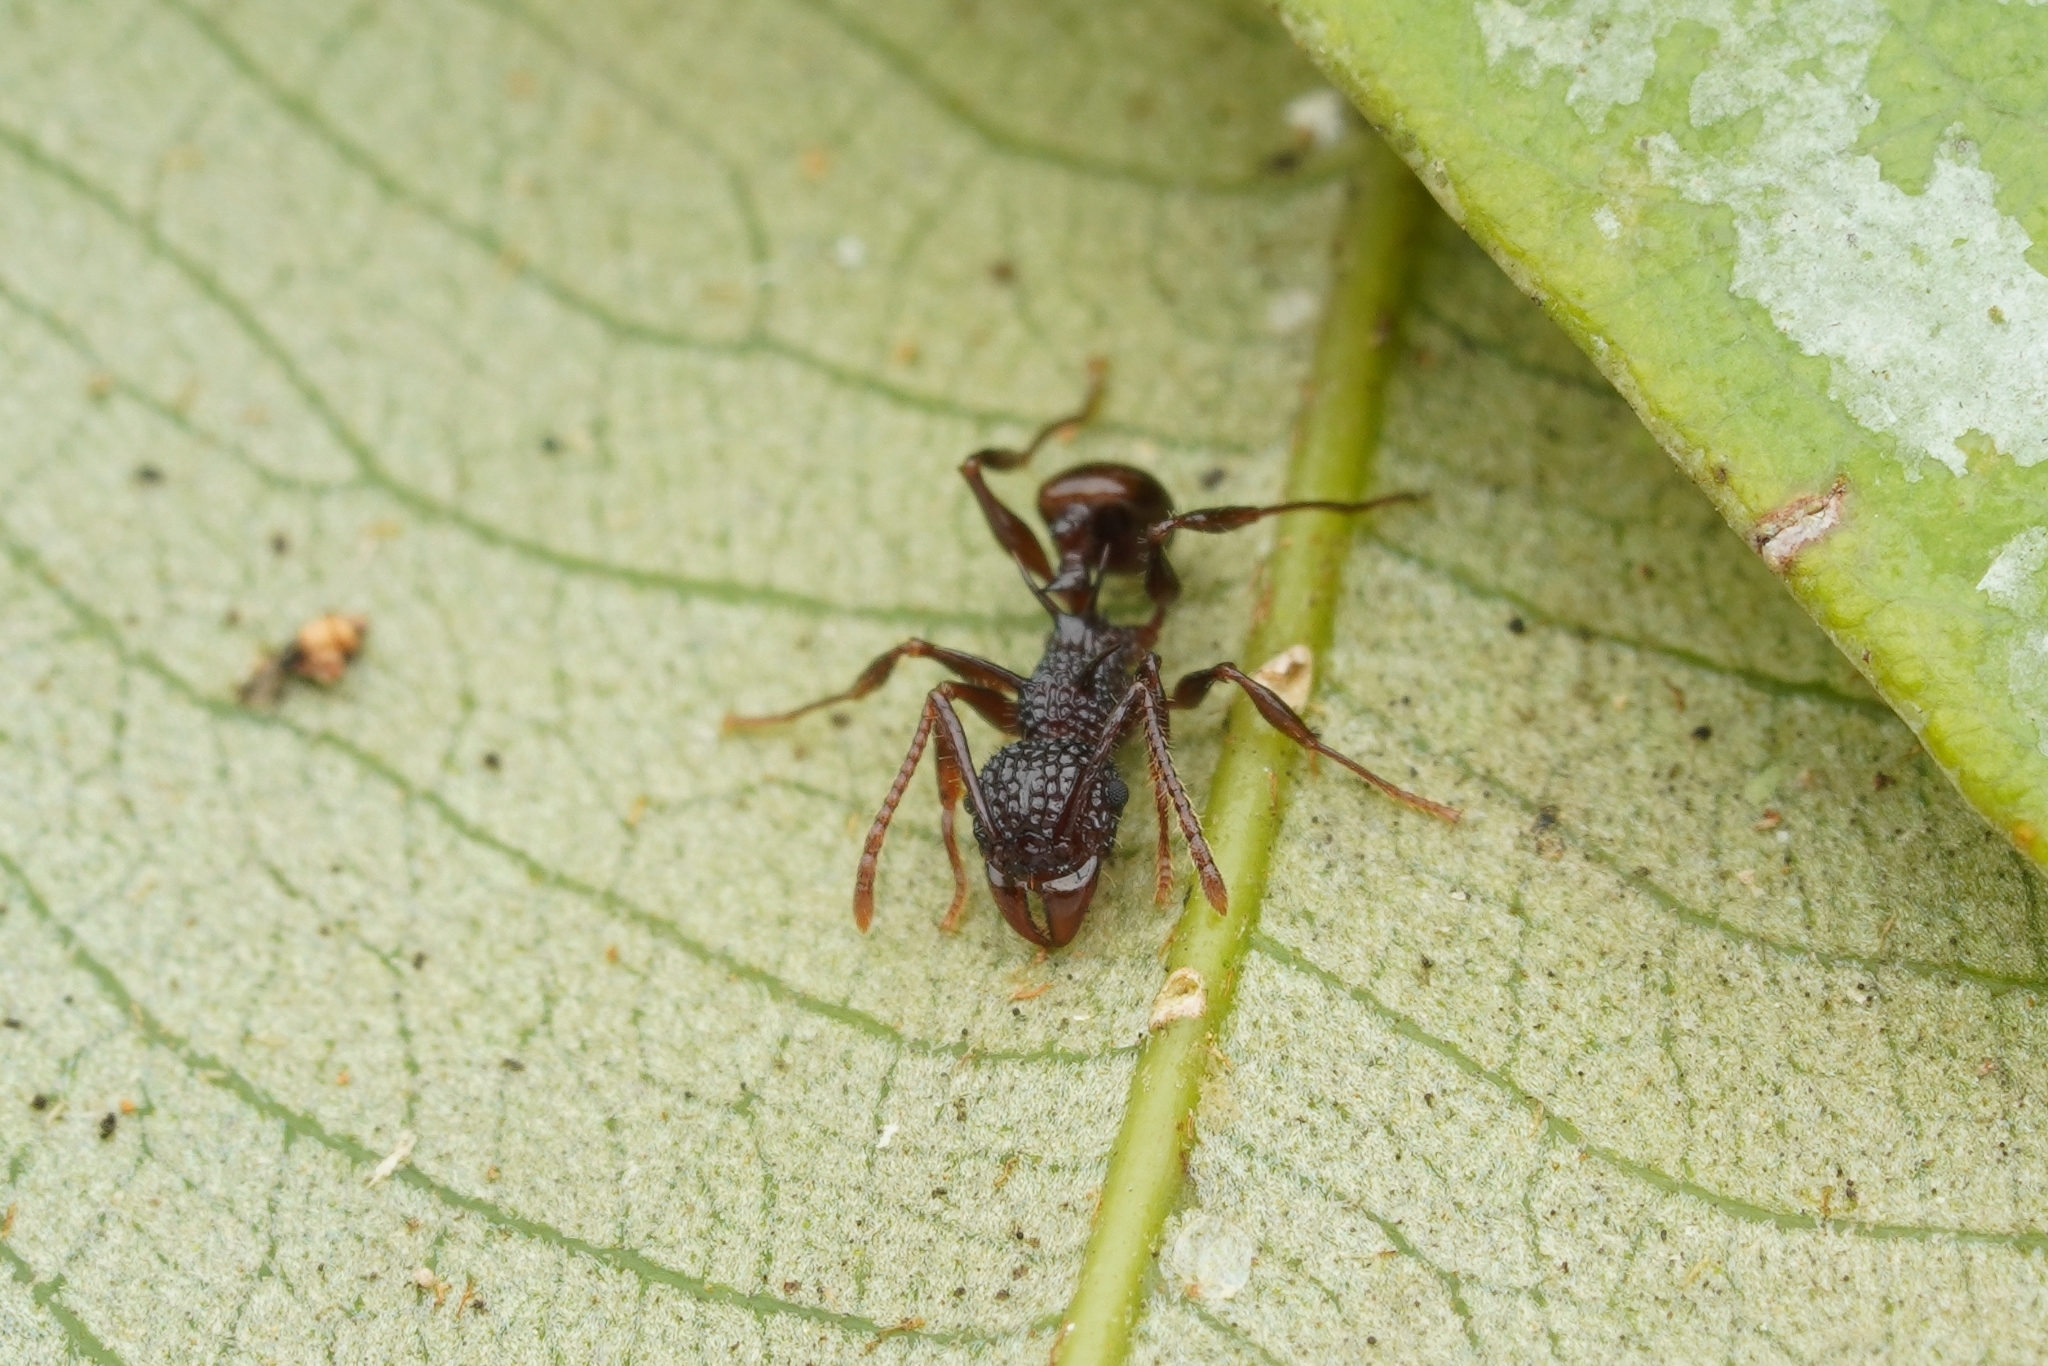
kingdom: Animalia
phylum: Arthropoda
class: Insecta
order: Hymenoptera
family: Formicidae
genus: Acanthomyrmex
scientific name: Acanthomyrmex ferox
